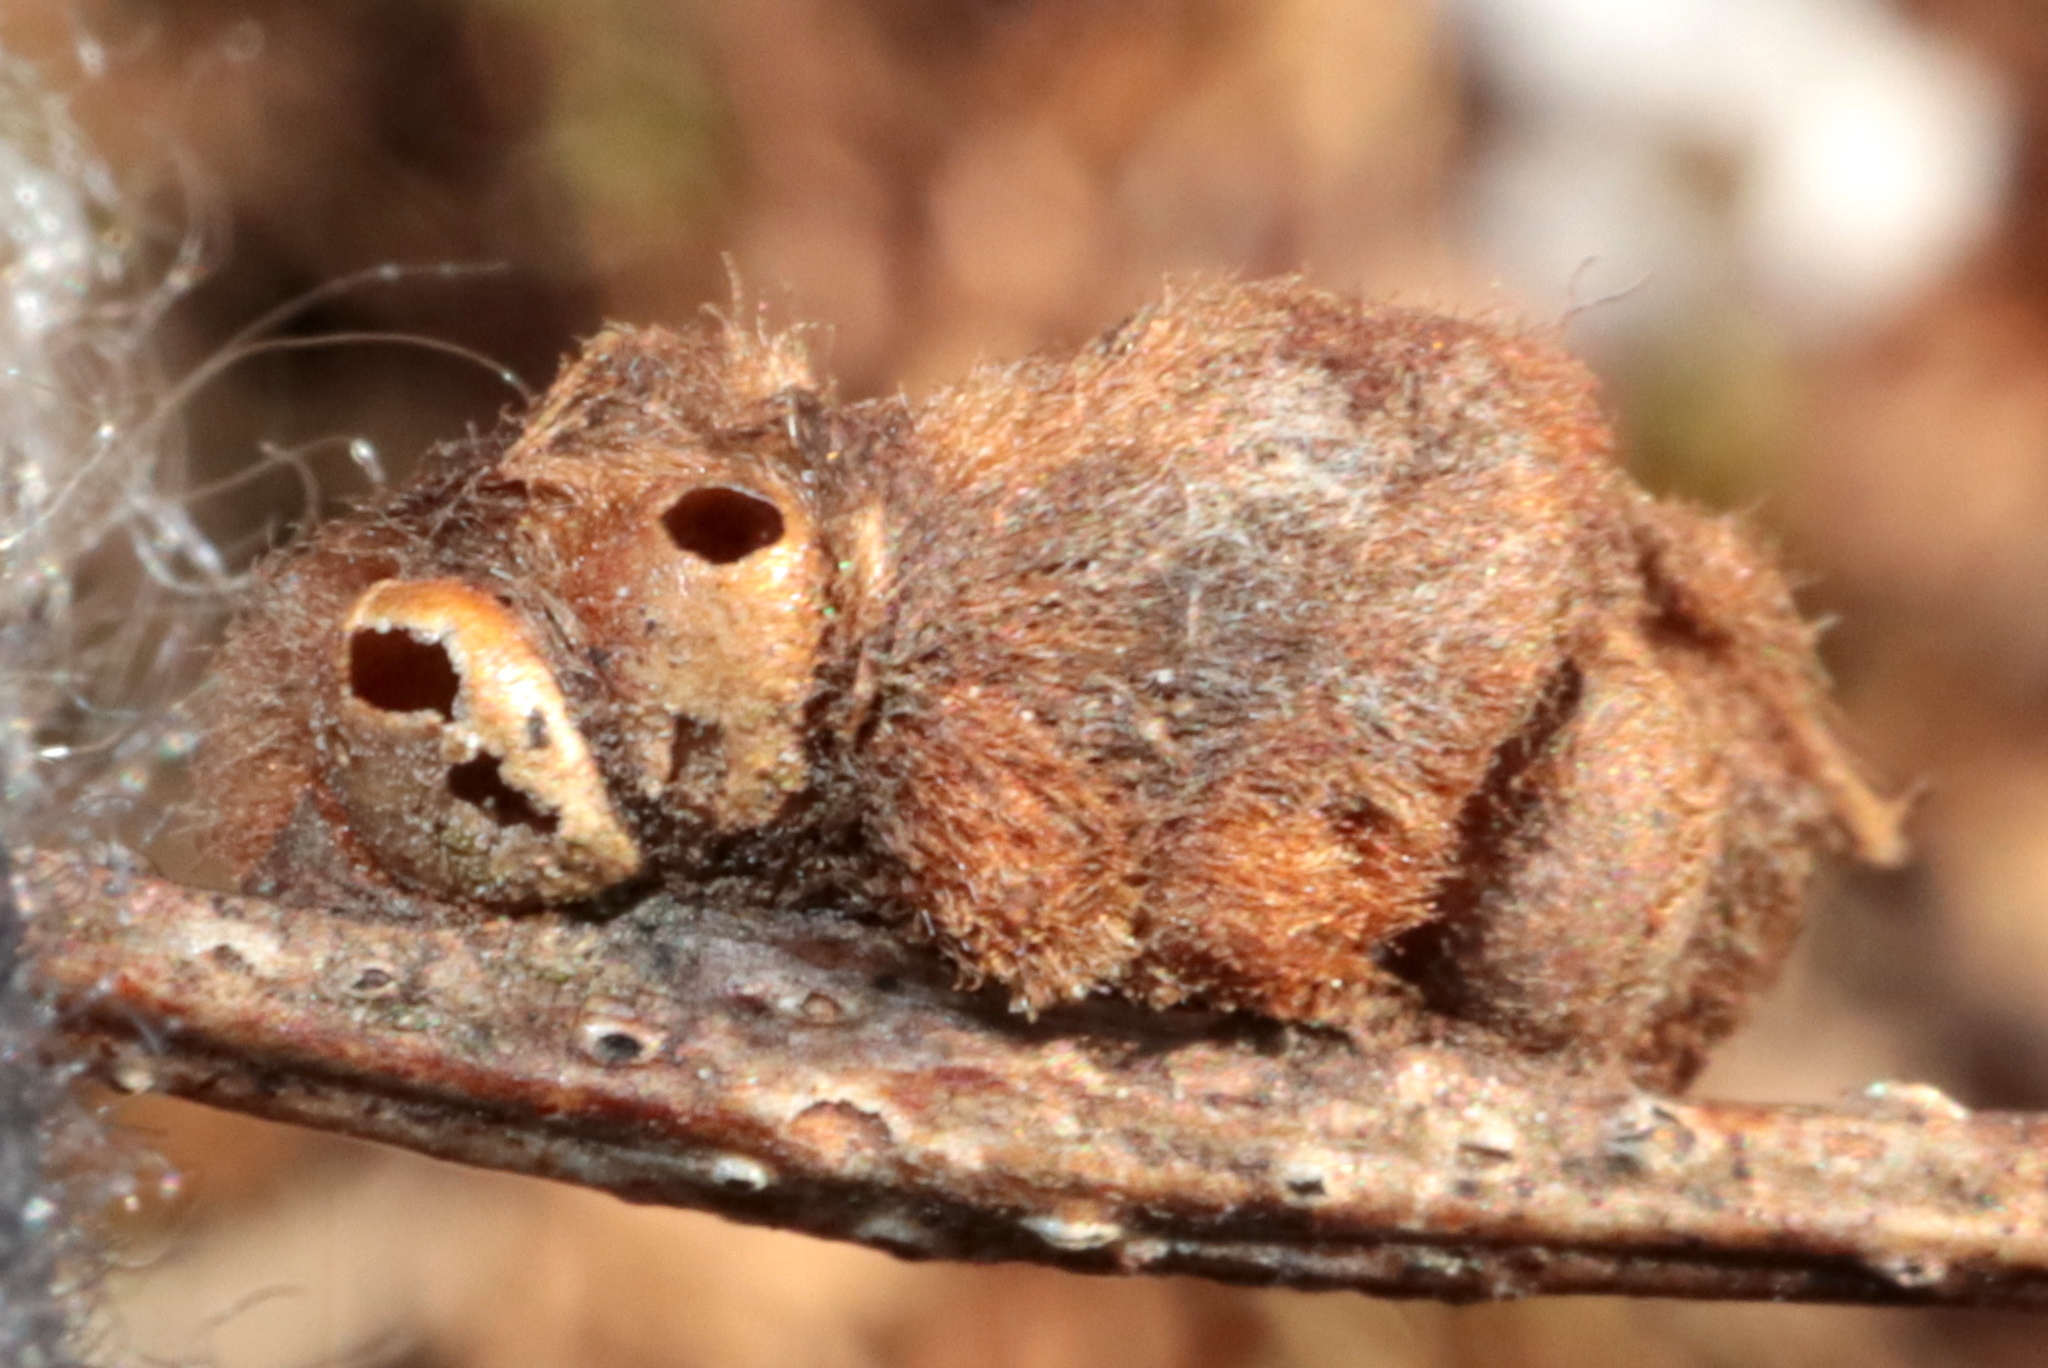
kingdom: Animalia
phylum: Arthropoda
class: Insecta
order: Hymenoptera
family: Cynipidae
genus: Andricus
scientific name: Andricus quercusflocci
